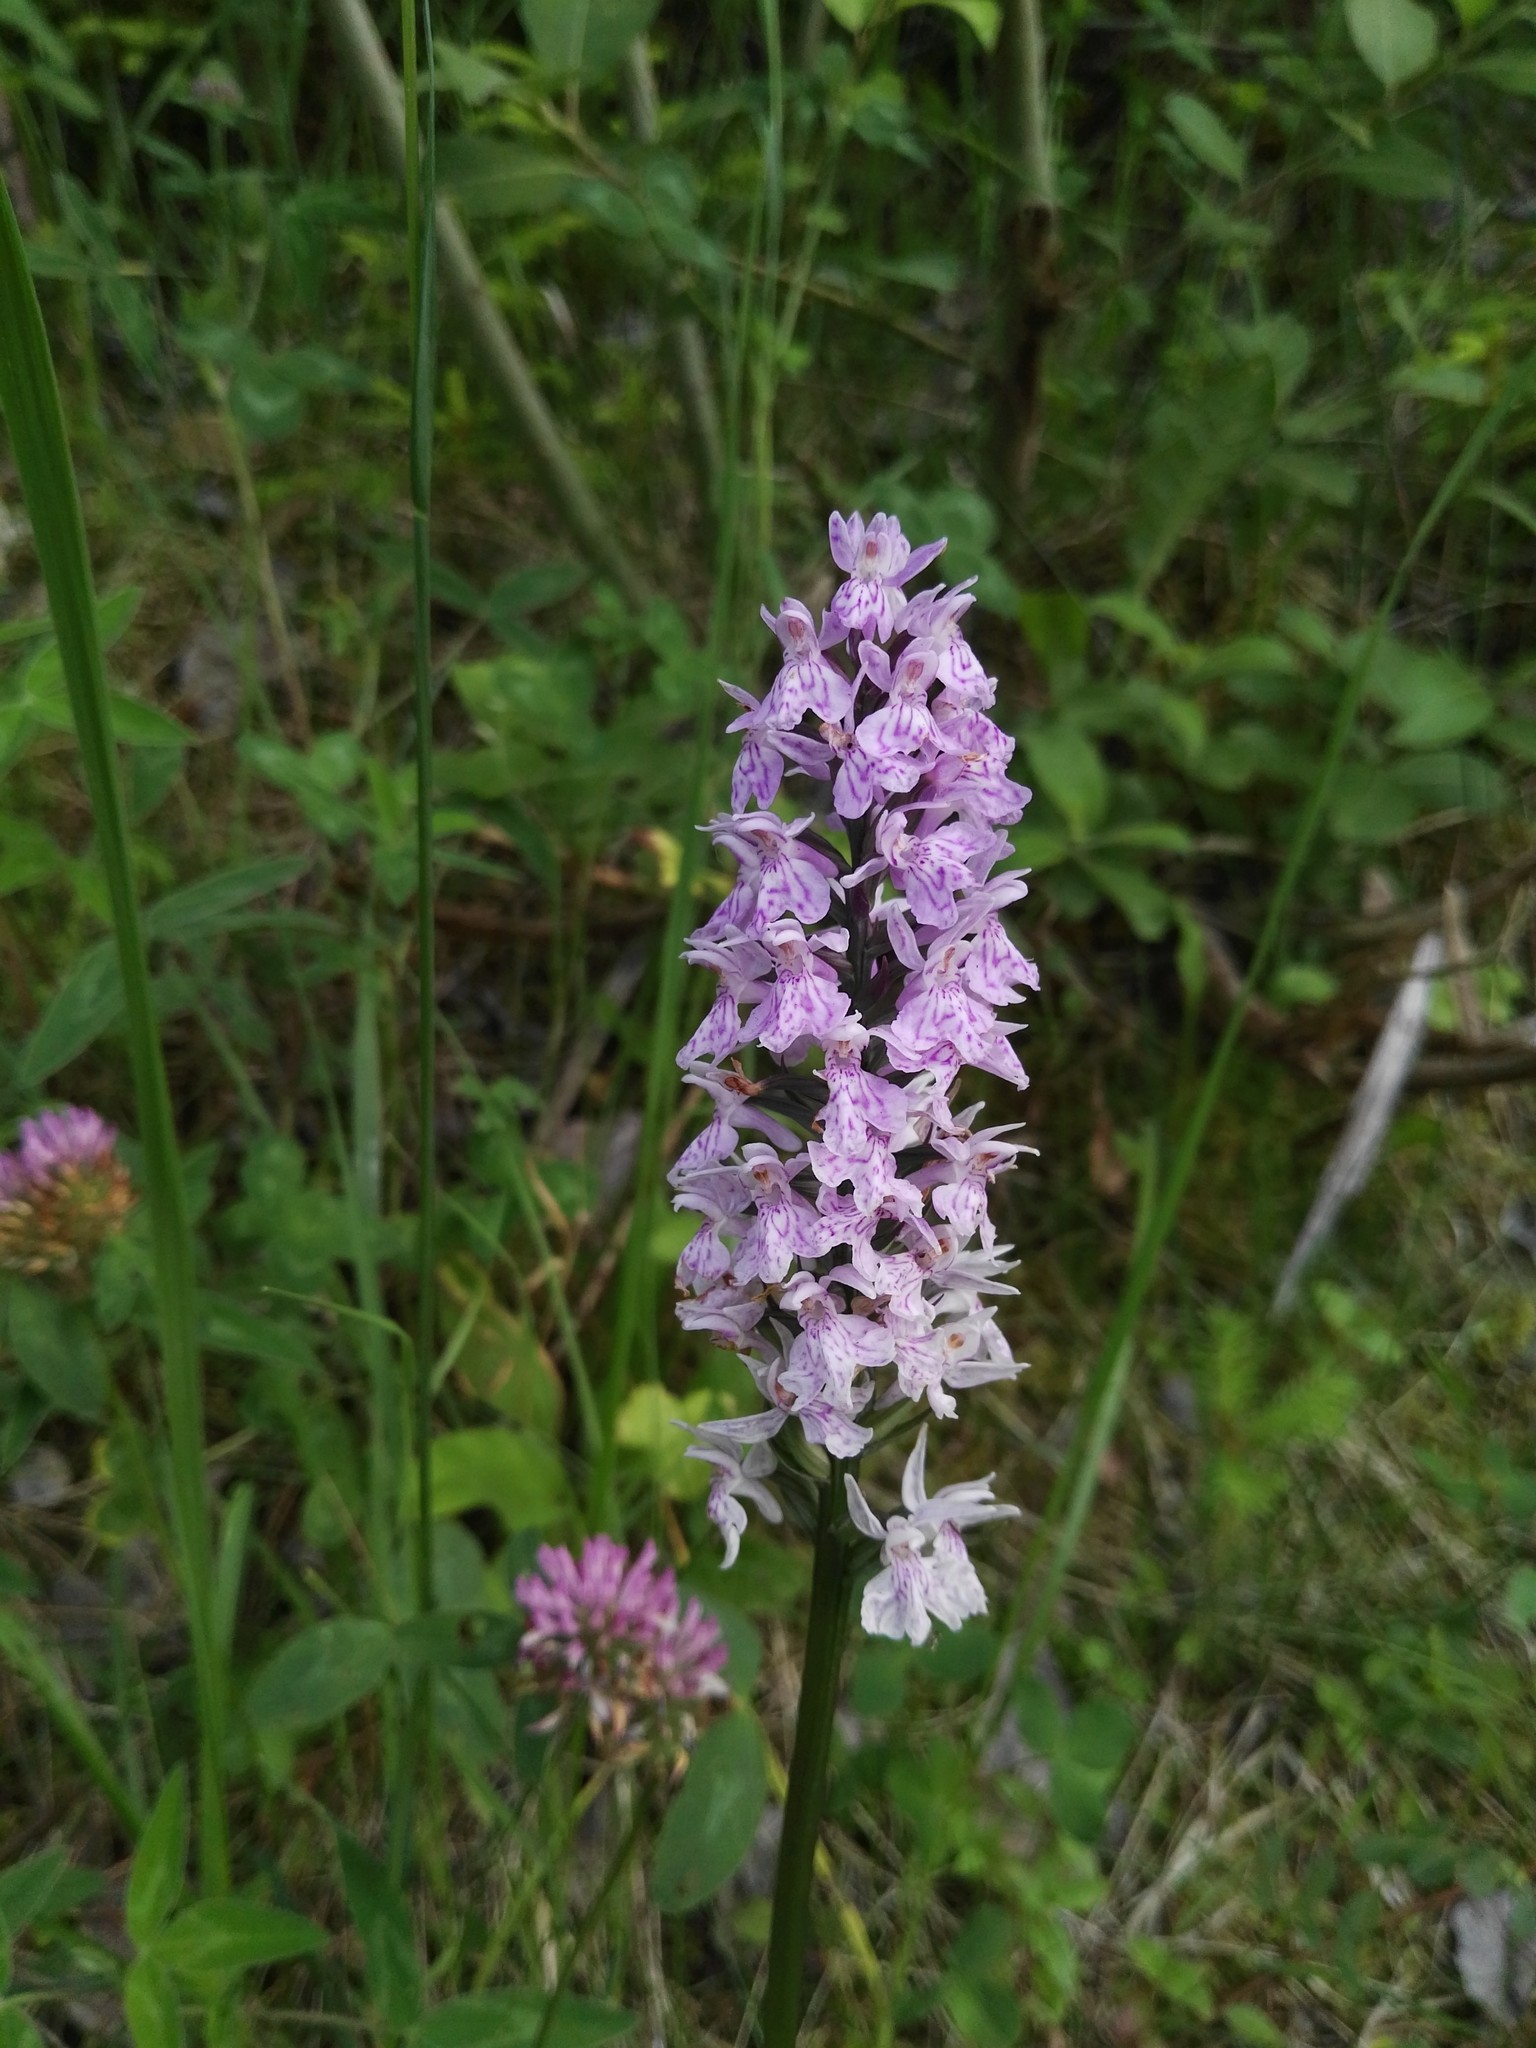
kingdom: Plantae
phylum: Tracheophyta
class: Liliopsida
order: Asparagales
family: Orchidaceae
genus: Dactylorhiza
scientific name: Dactylorhiza maculata
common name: Heath spotted-orchid
